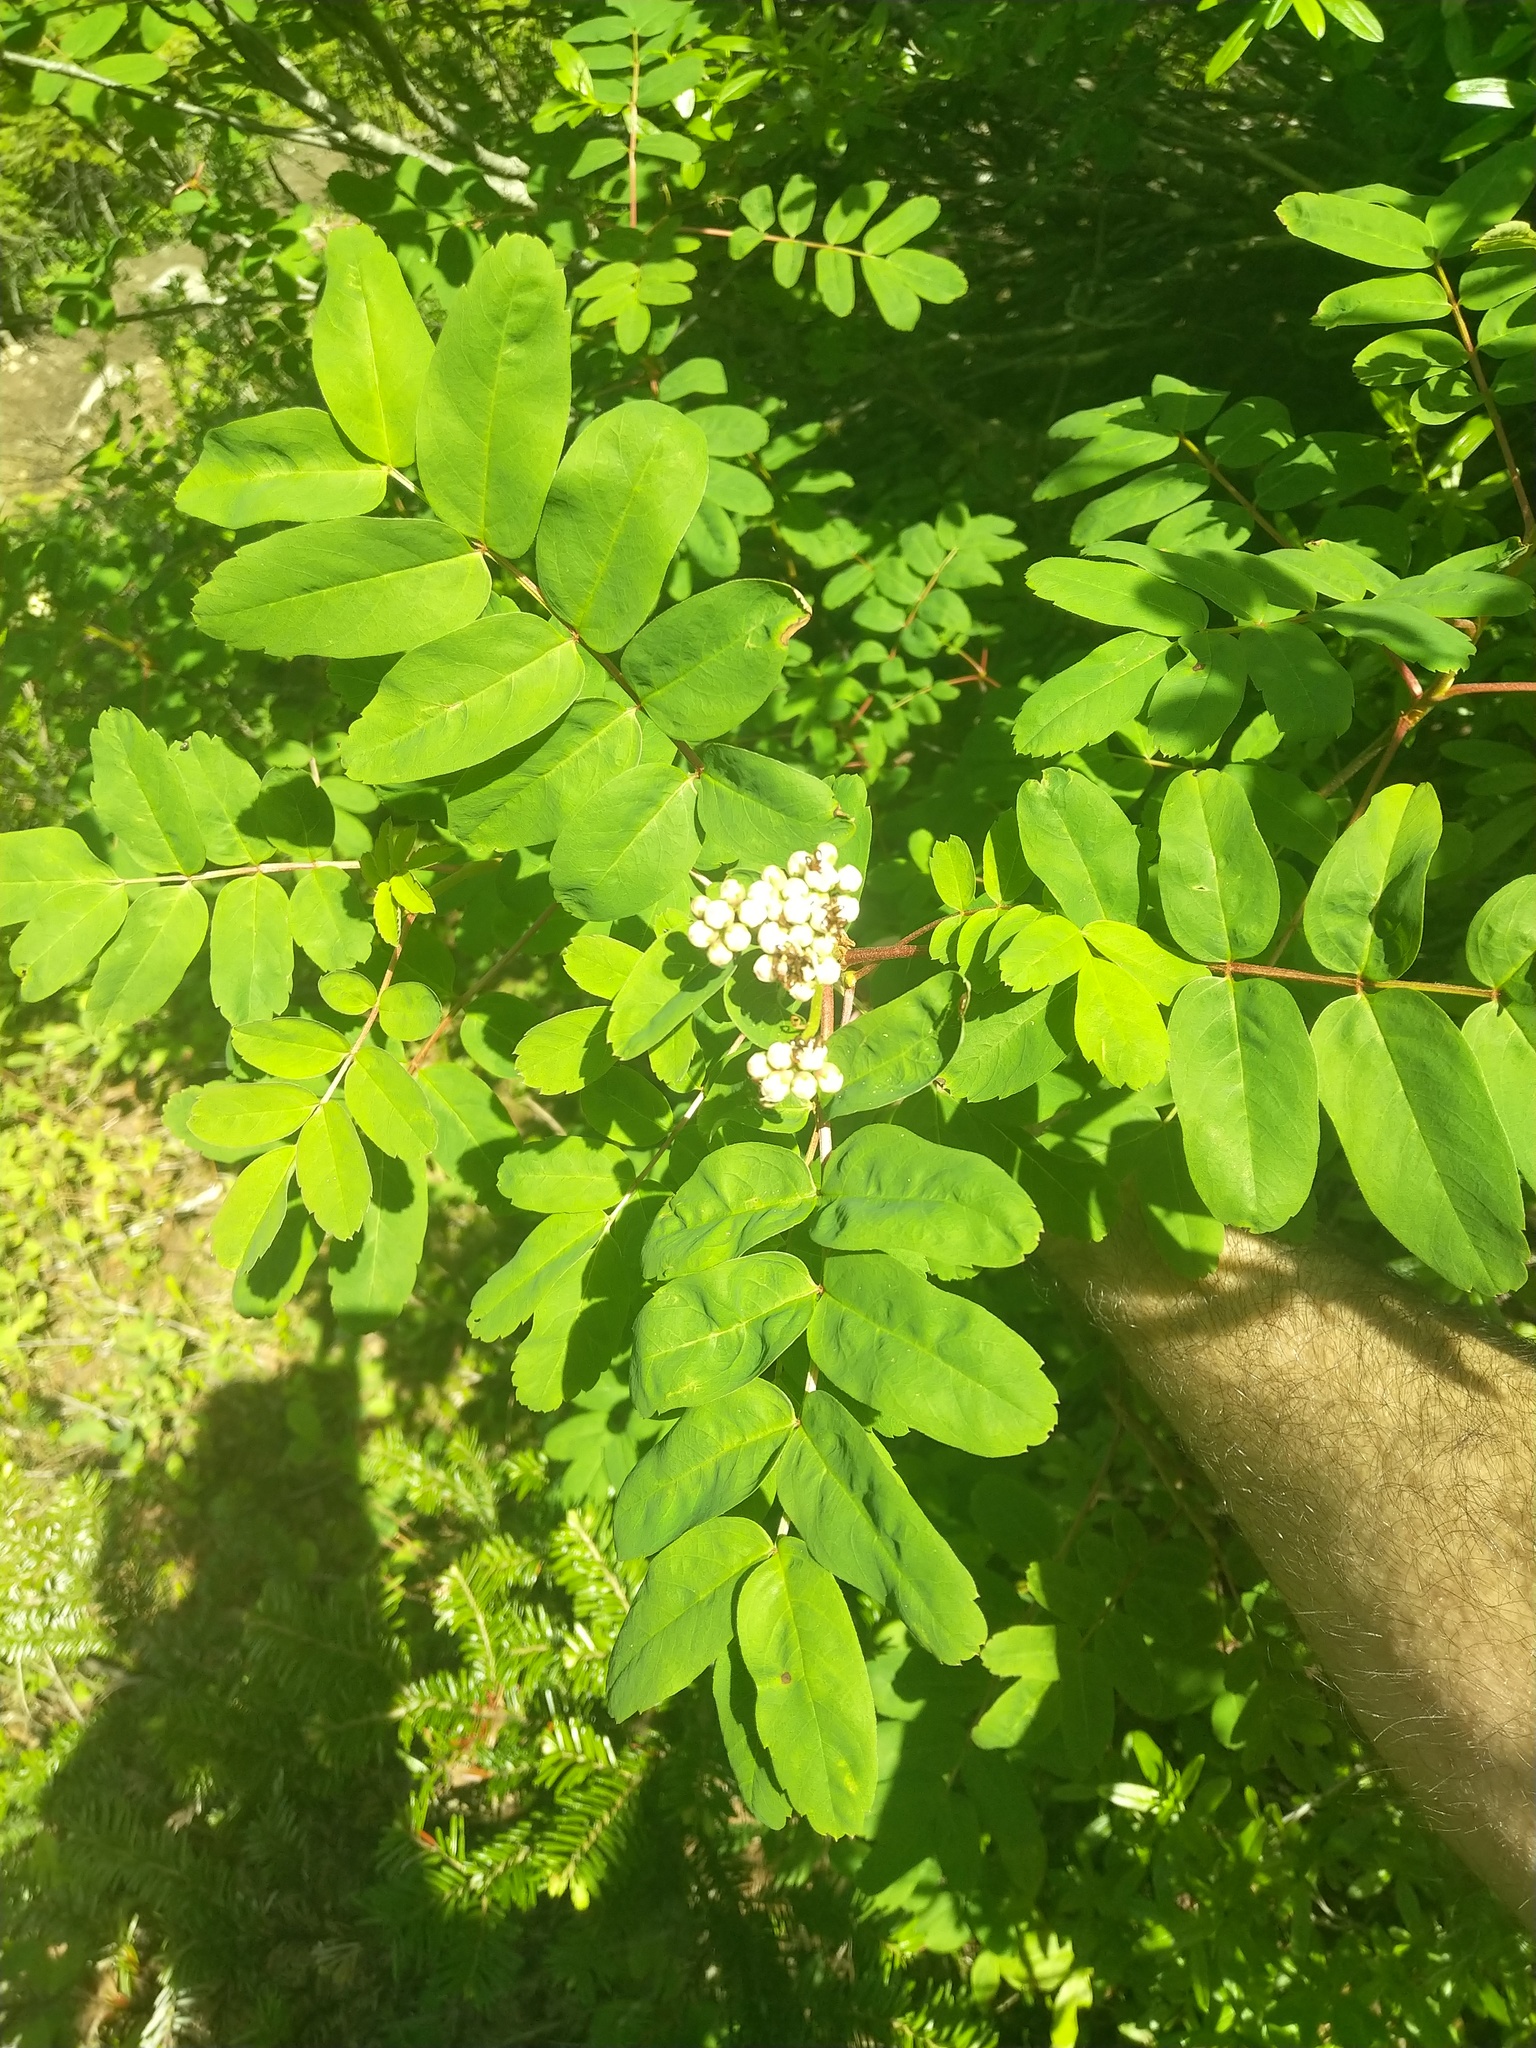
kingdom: Plantae
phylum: Tracheophyta
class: Magnoliopsida
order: Rosales
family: Rosaceae
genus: Sorbus
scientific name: Sorbus sitchensis
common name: Sitka mountain-ash
